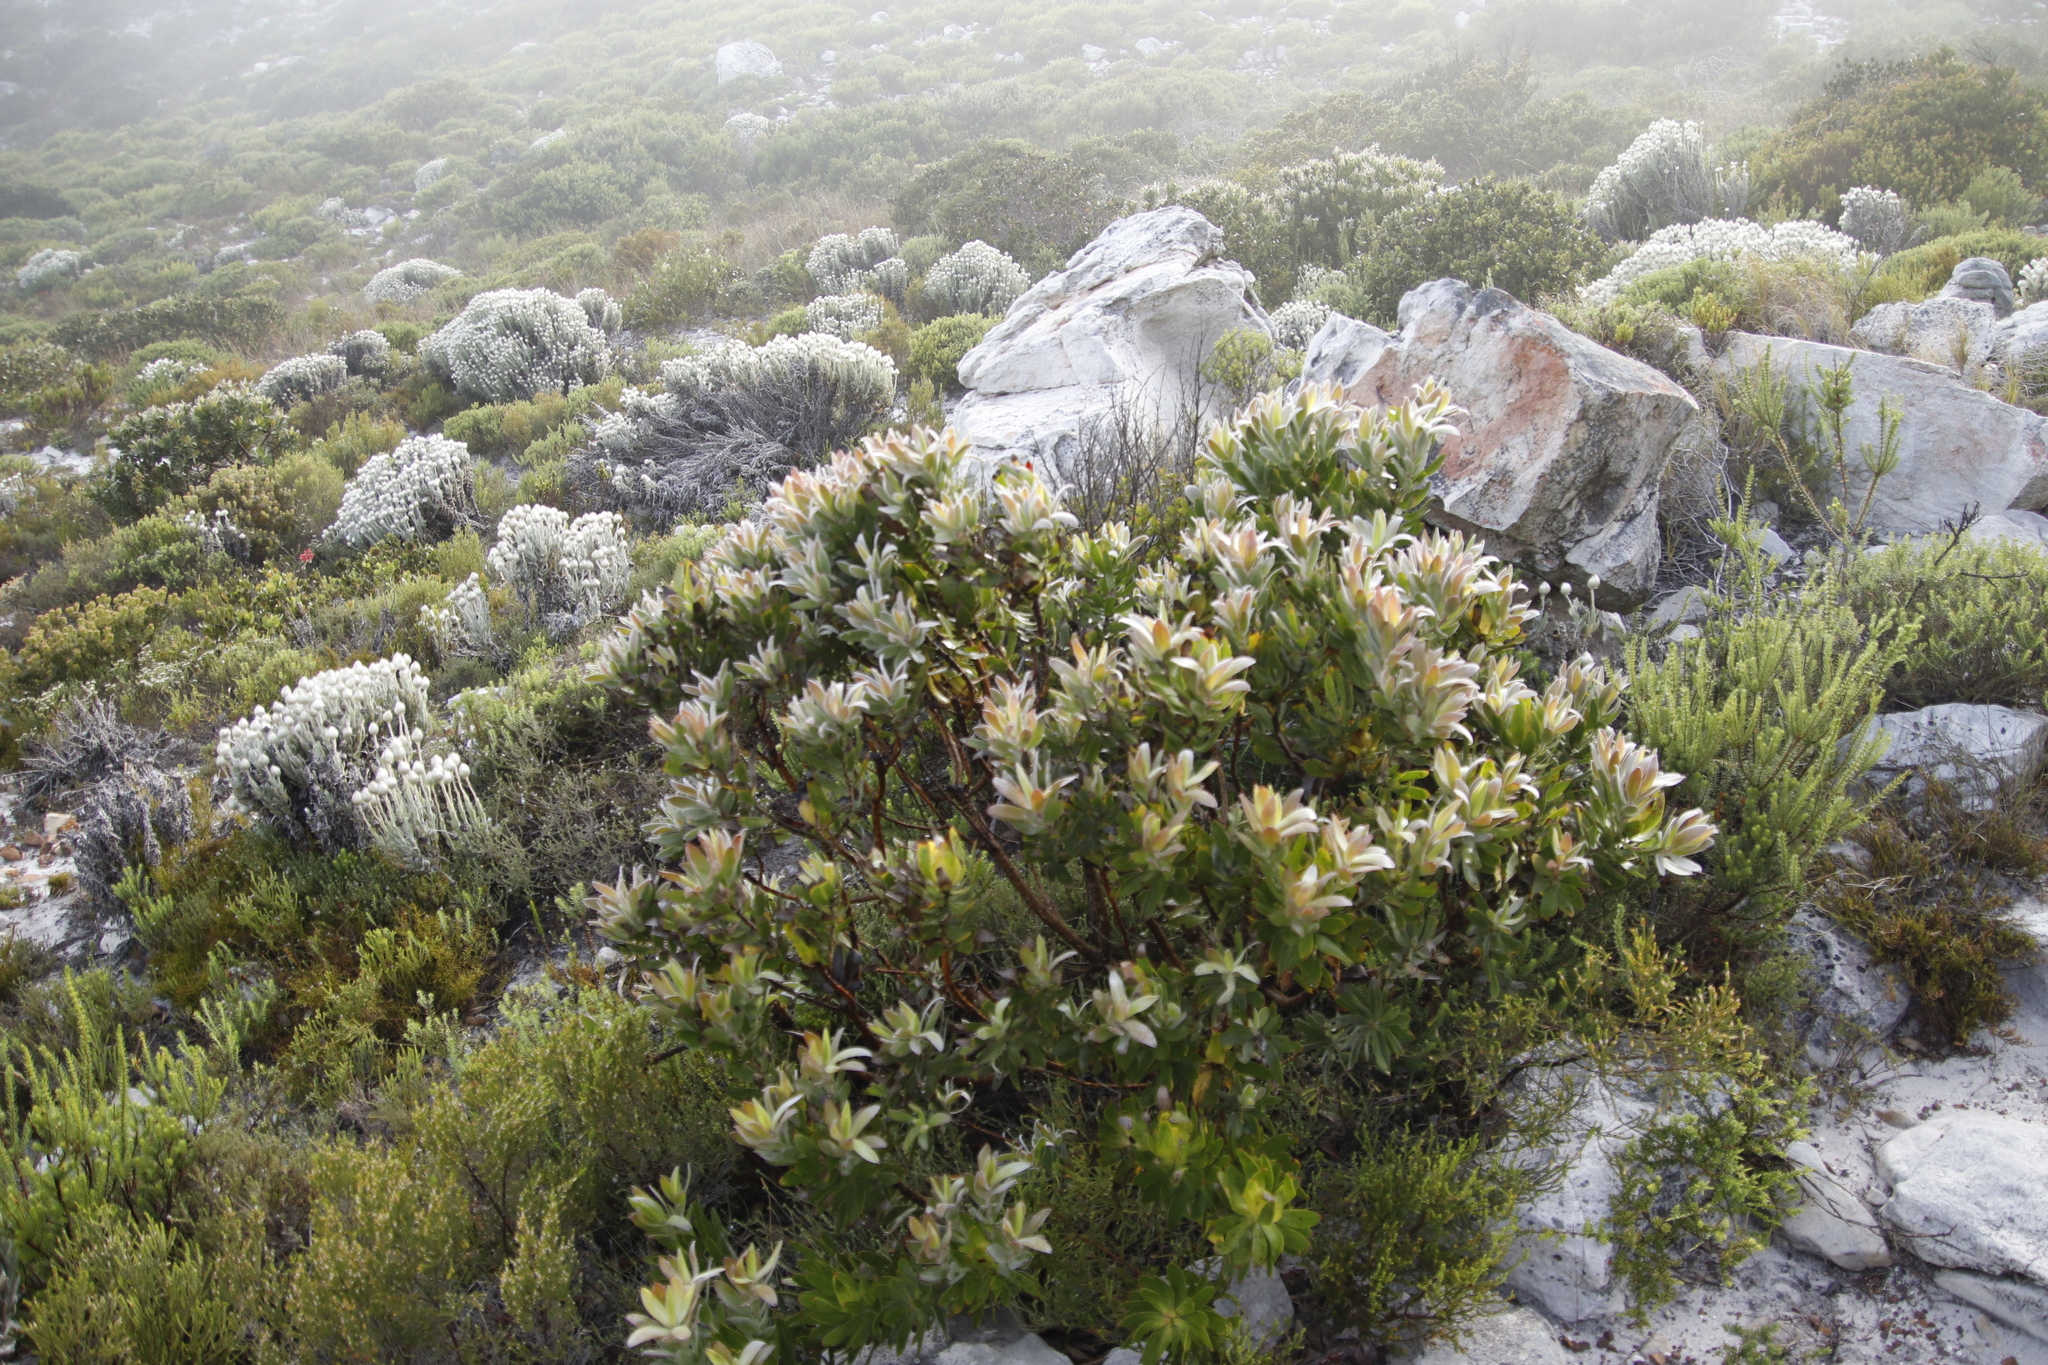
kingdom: Plantae
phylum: Tracheophyta
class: Magnoliopsida
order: Proteales
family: Proteaceae
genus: Leucadendron
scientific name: Leucadendron laureolum
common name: Golden sunshinebush
